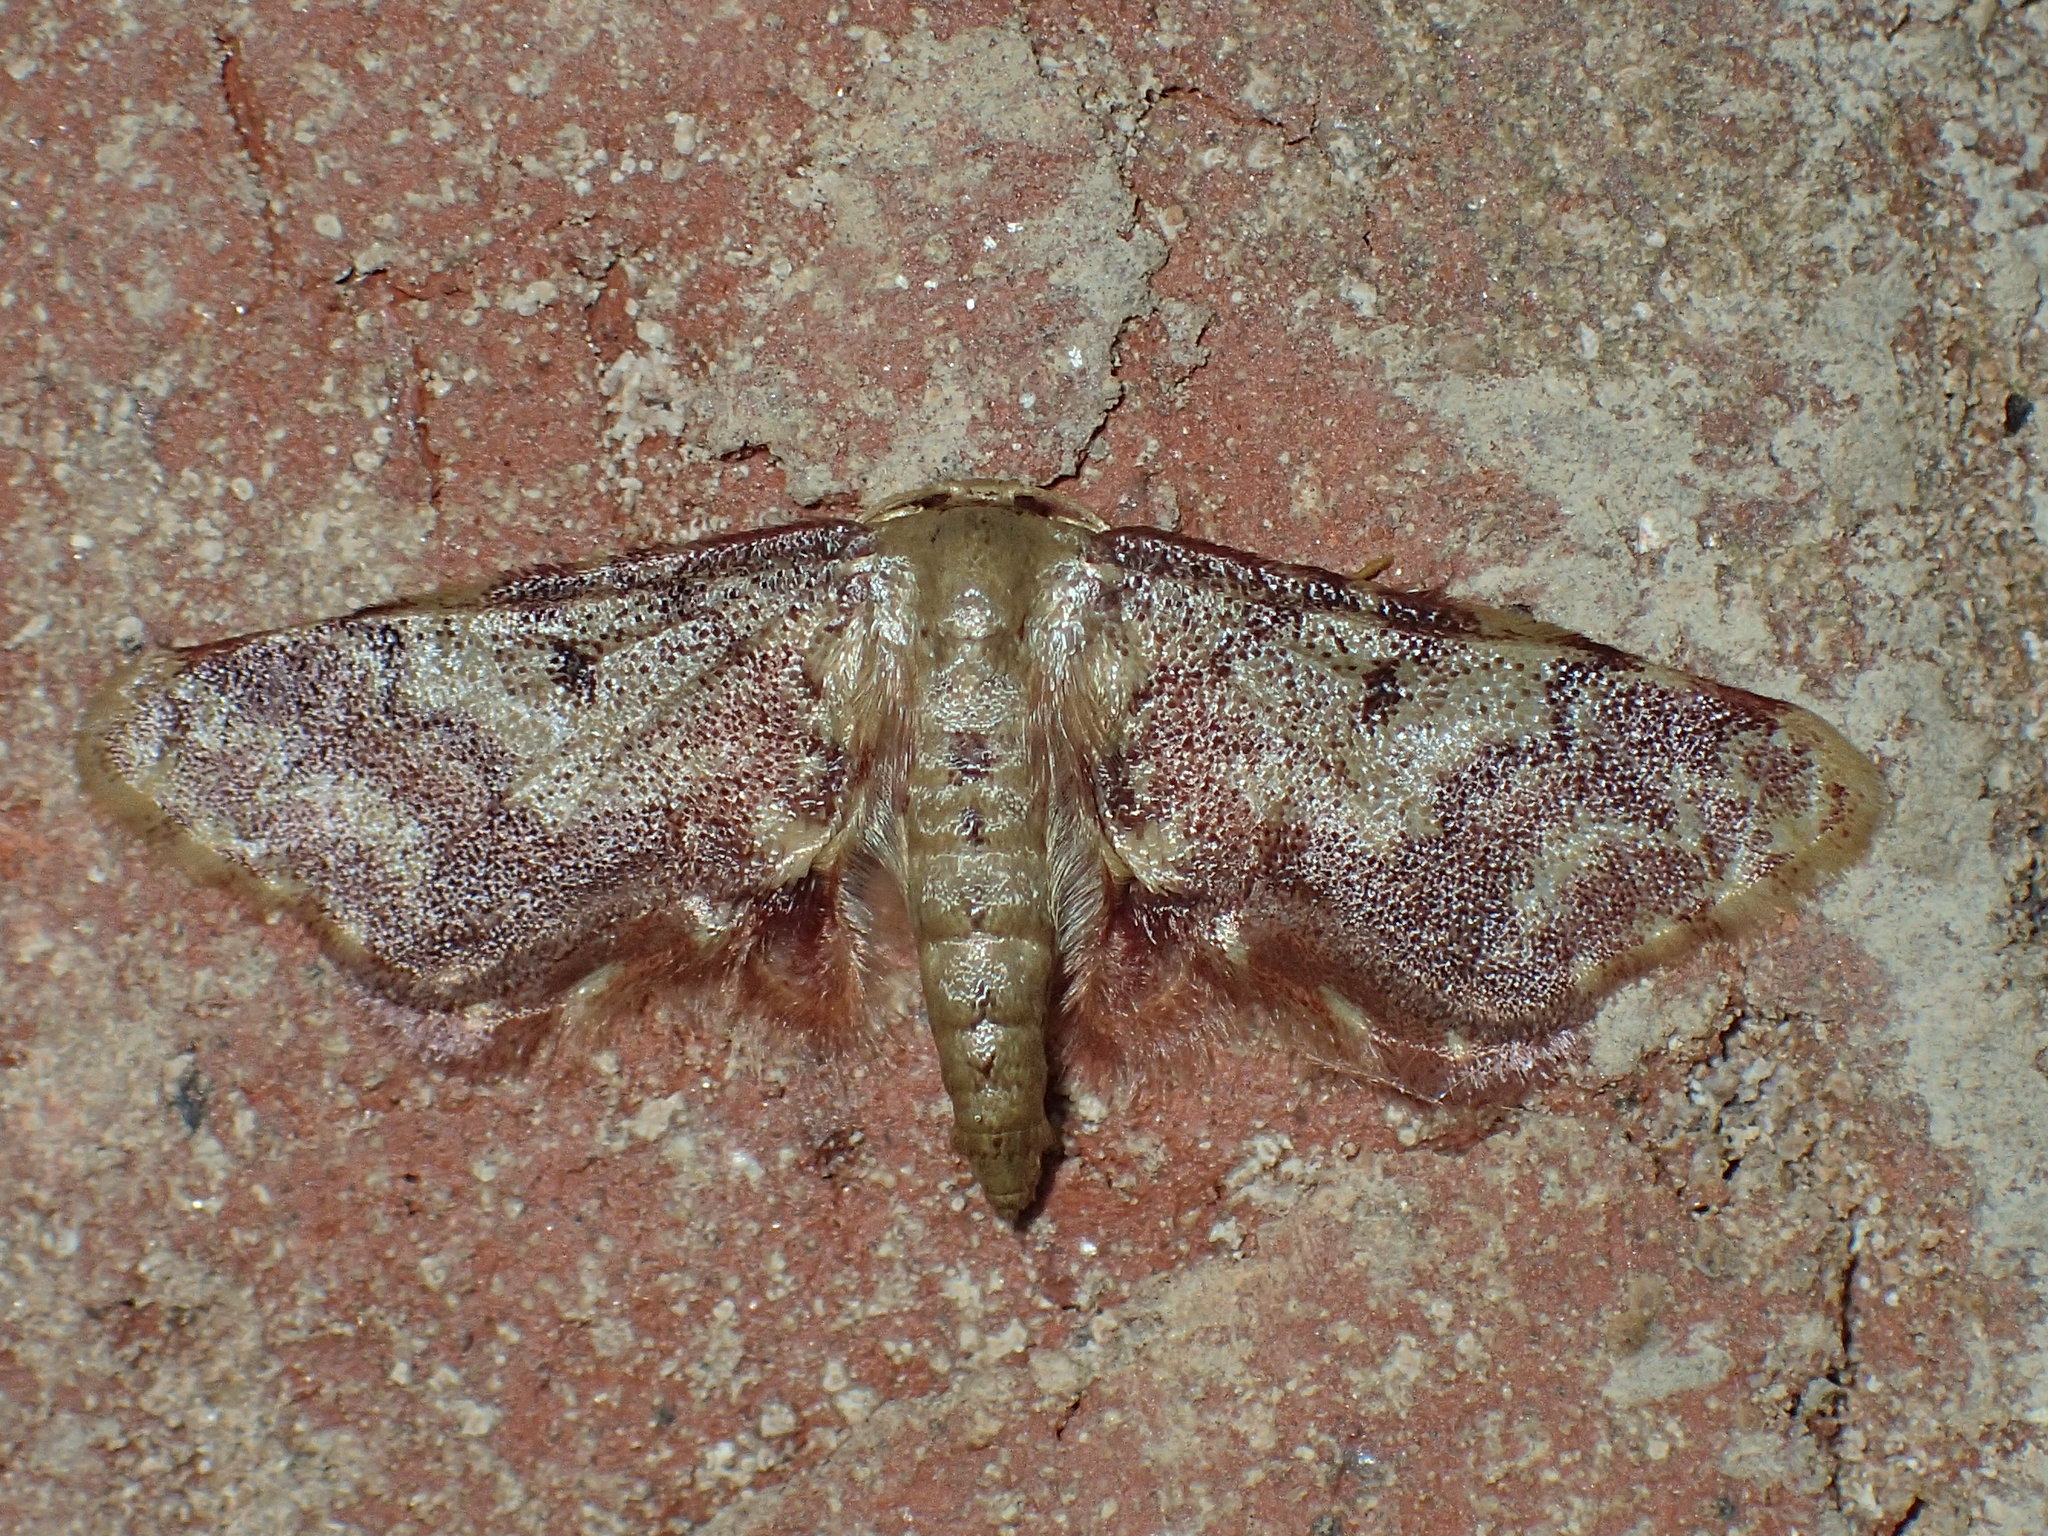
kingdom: Animalia
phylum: Arthropoda
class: Insecta
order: Lepidoptera
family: Geometridae
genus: Idaea
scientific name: Idaea furciferata
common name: Notch-winged wave
